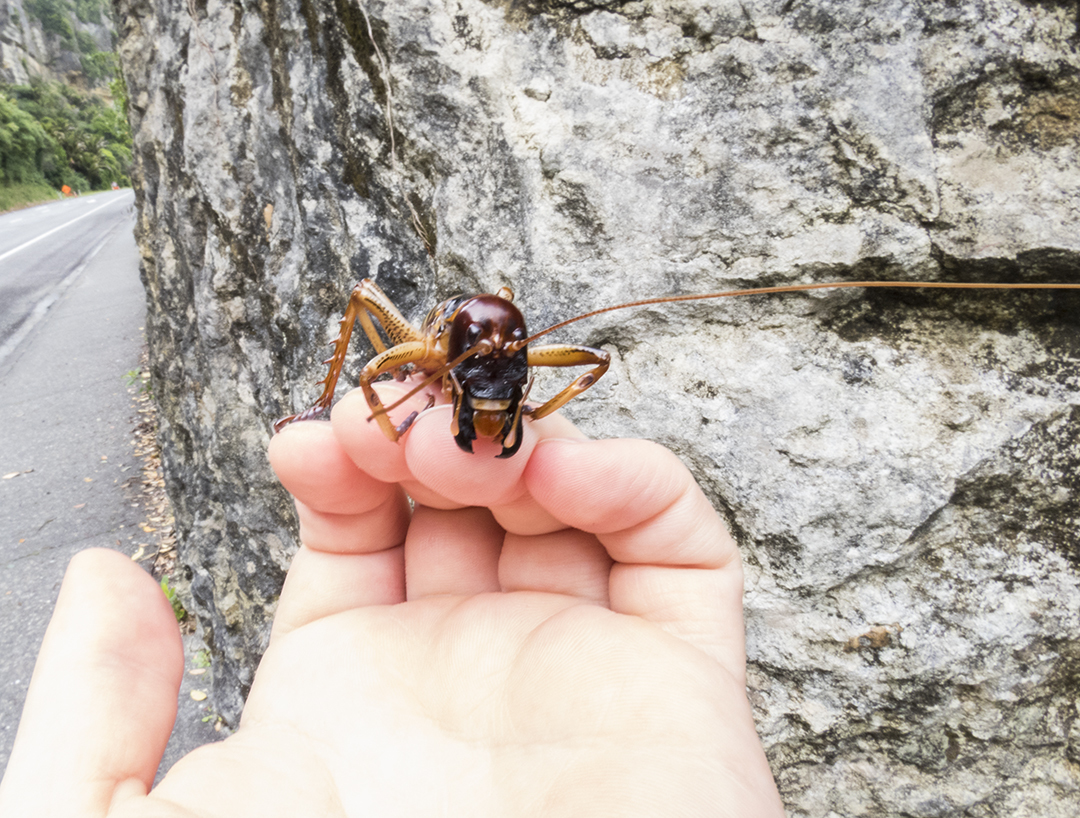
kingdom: Animalia
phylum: Arthropoda
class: Insecta
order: Orthoptera
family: Anostostomatidae
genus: Hemideina
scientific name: Hemideina crassidens
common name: Wellington tree weta
